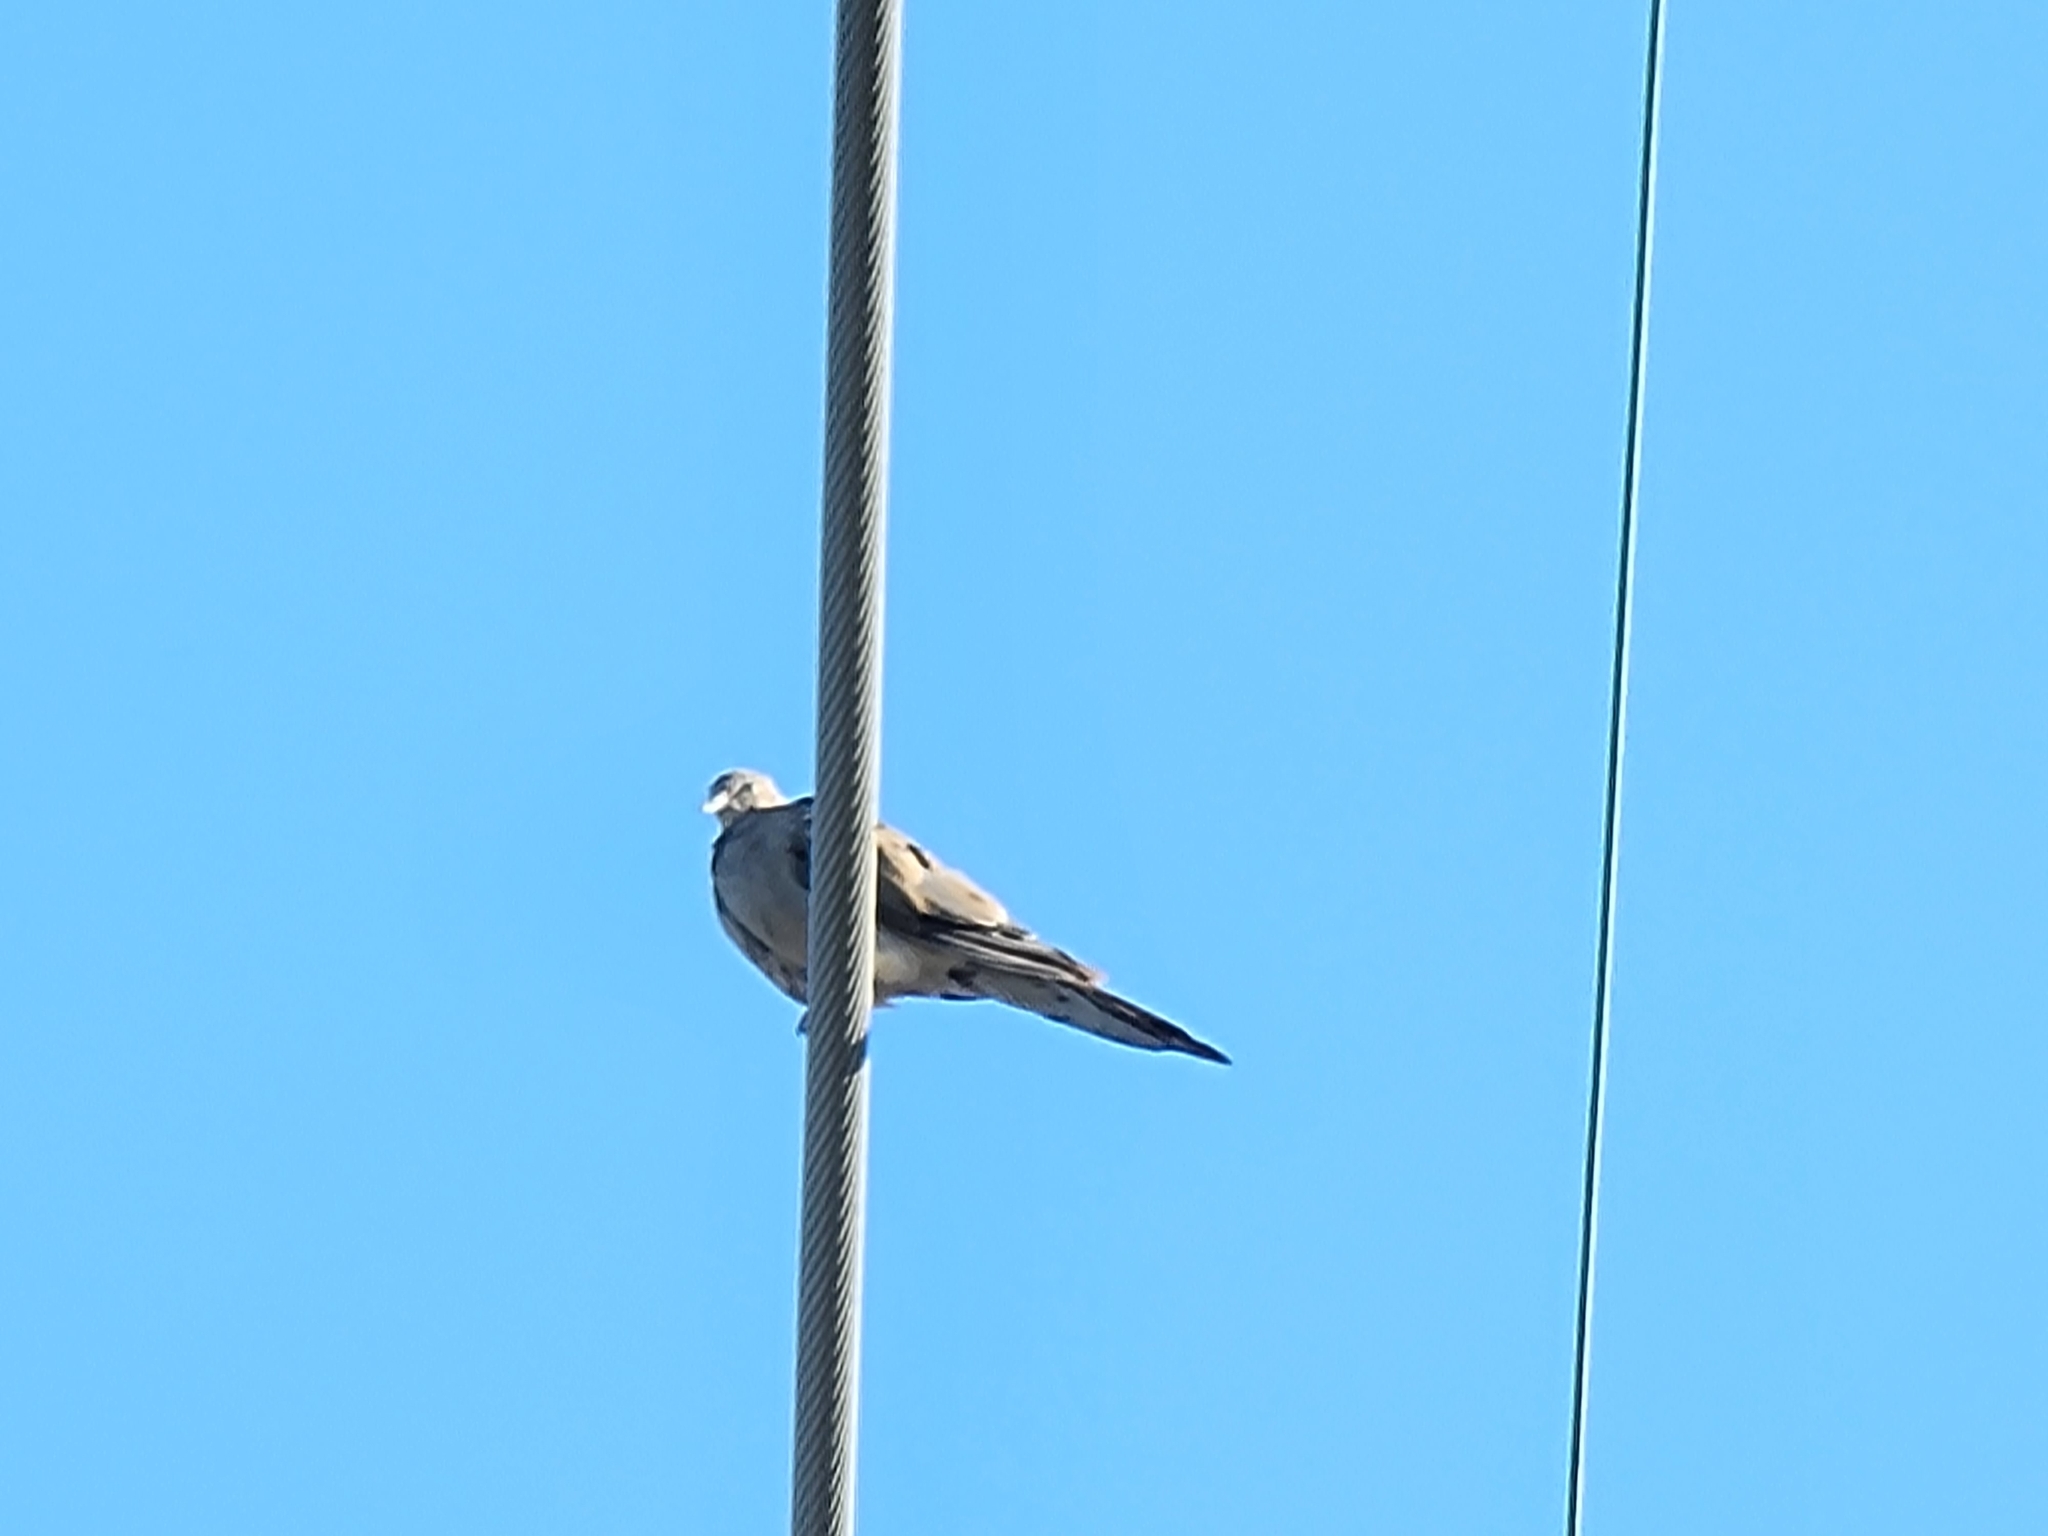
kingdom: Animalia
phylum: Chordata
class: Aves
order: Columbiformes
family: Columbidae
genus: Zenaida
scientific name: Zenaida macroura
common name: Mourning dove
